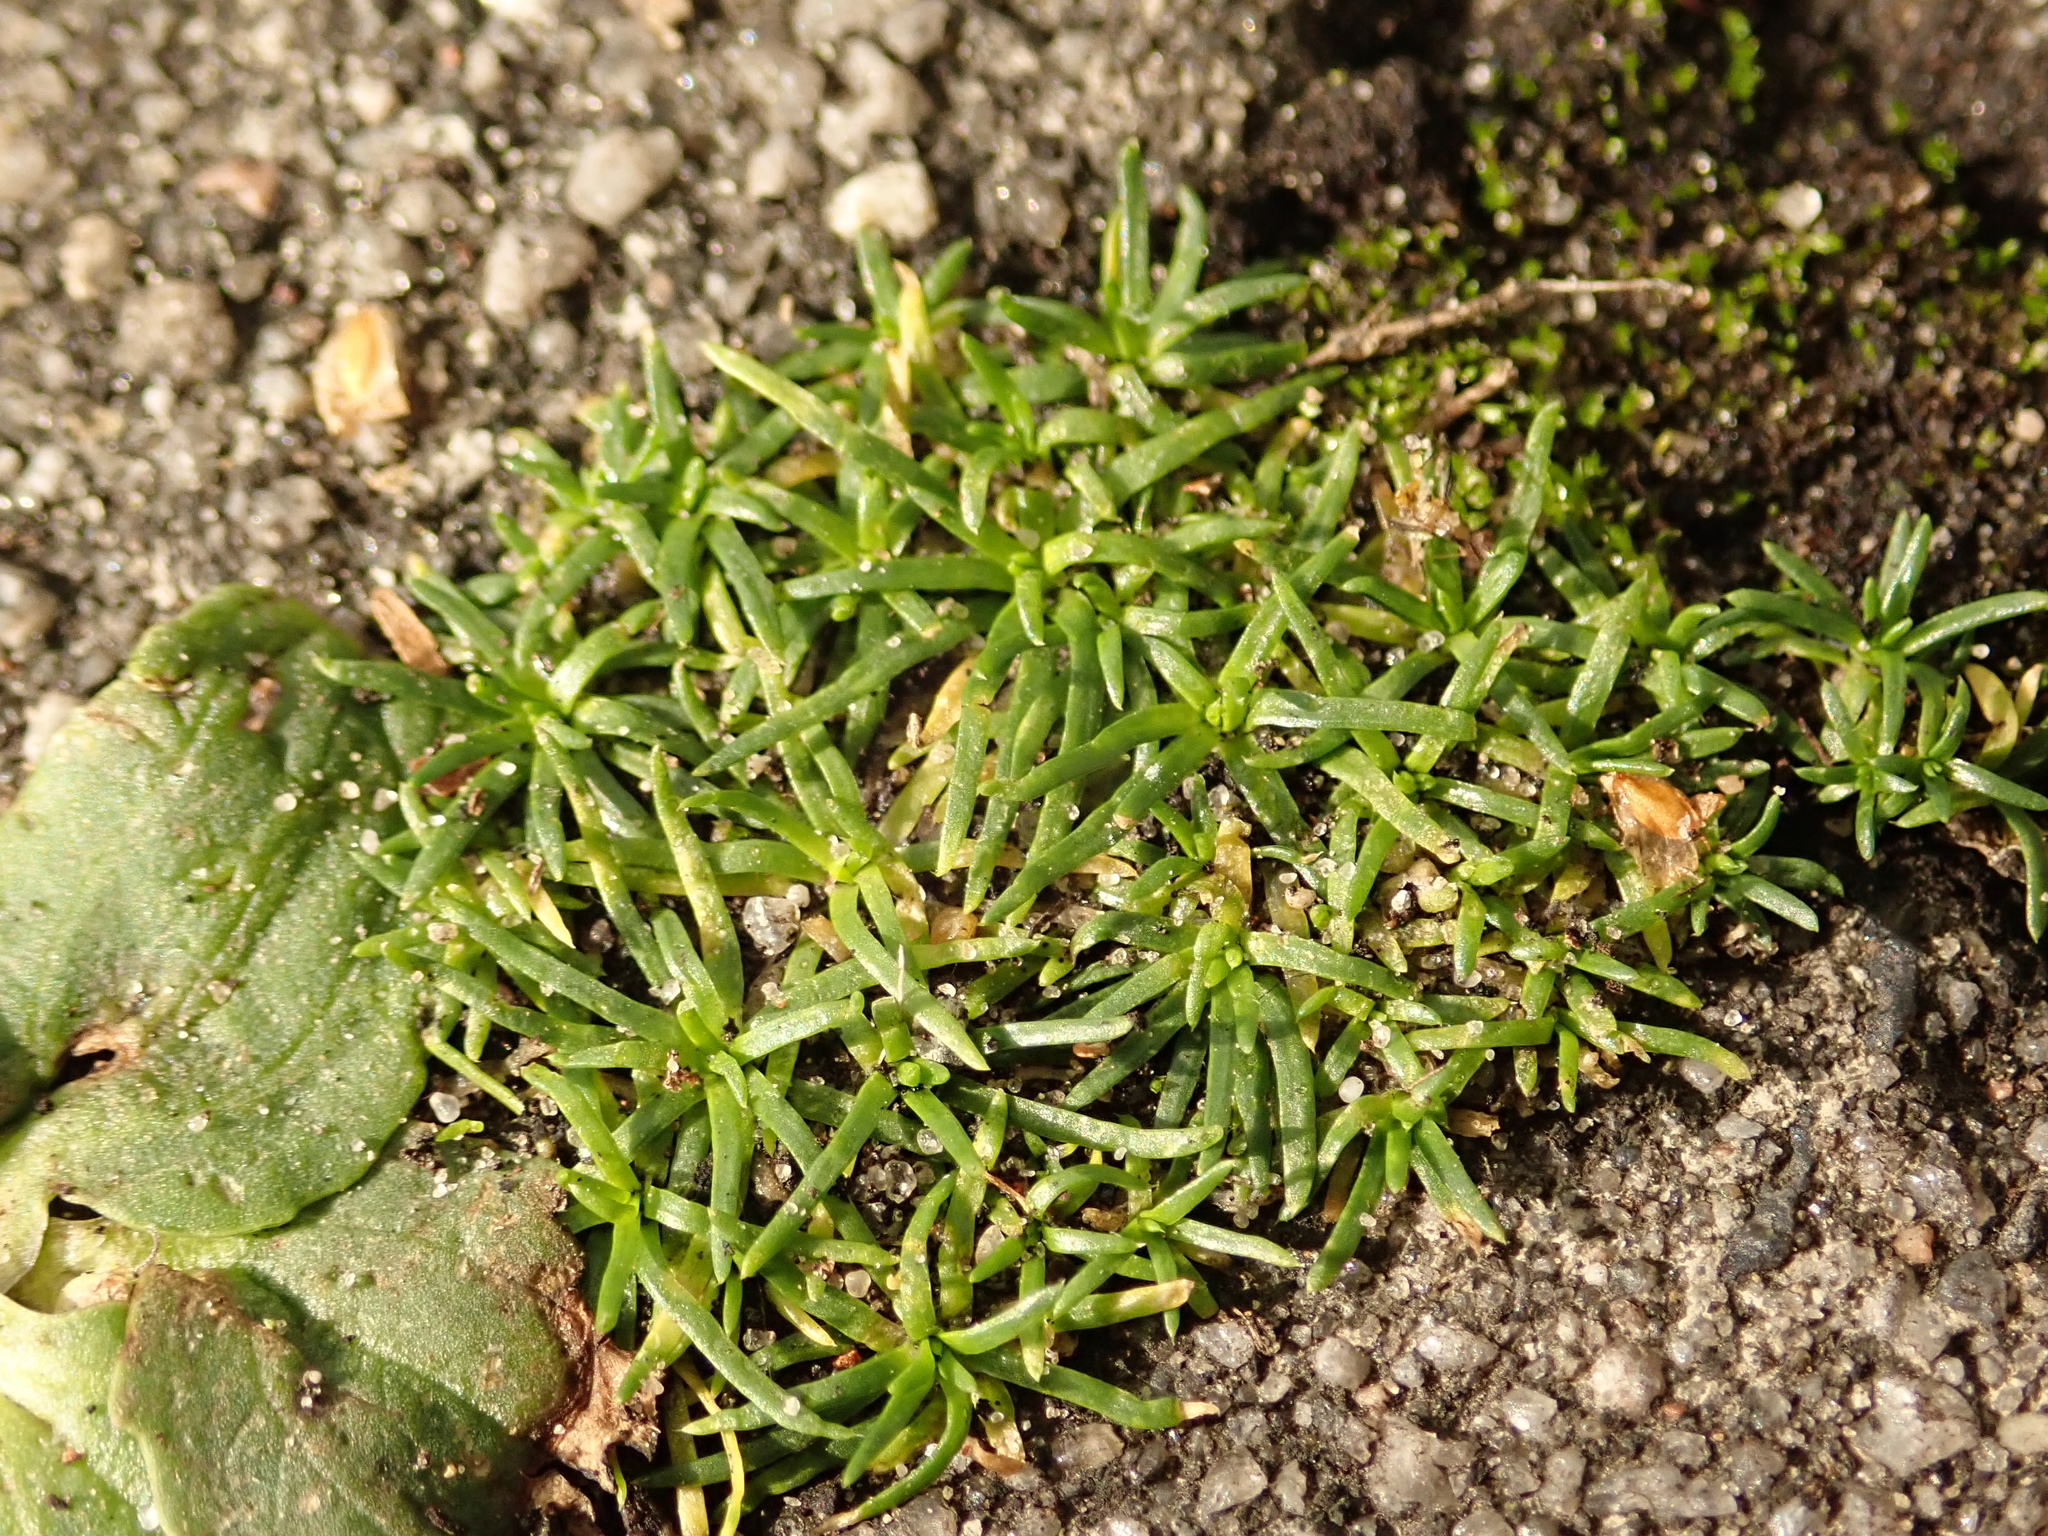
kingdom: Plantae
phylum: Tracheophyta
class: Magnoliopsida
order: Caryophyllales
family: Caryophyllaceae
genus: Sagina
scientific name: Sagina procumbens
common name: Procumbent pearlwort
